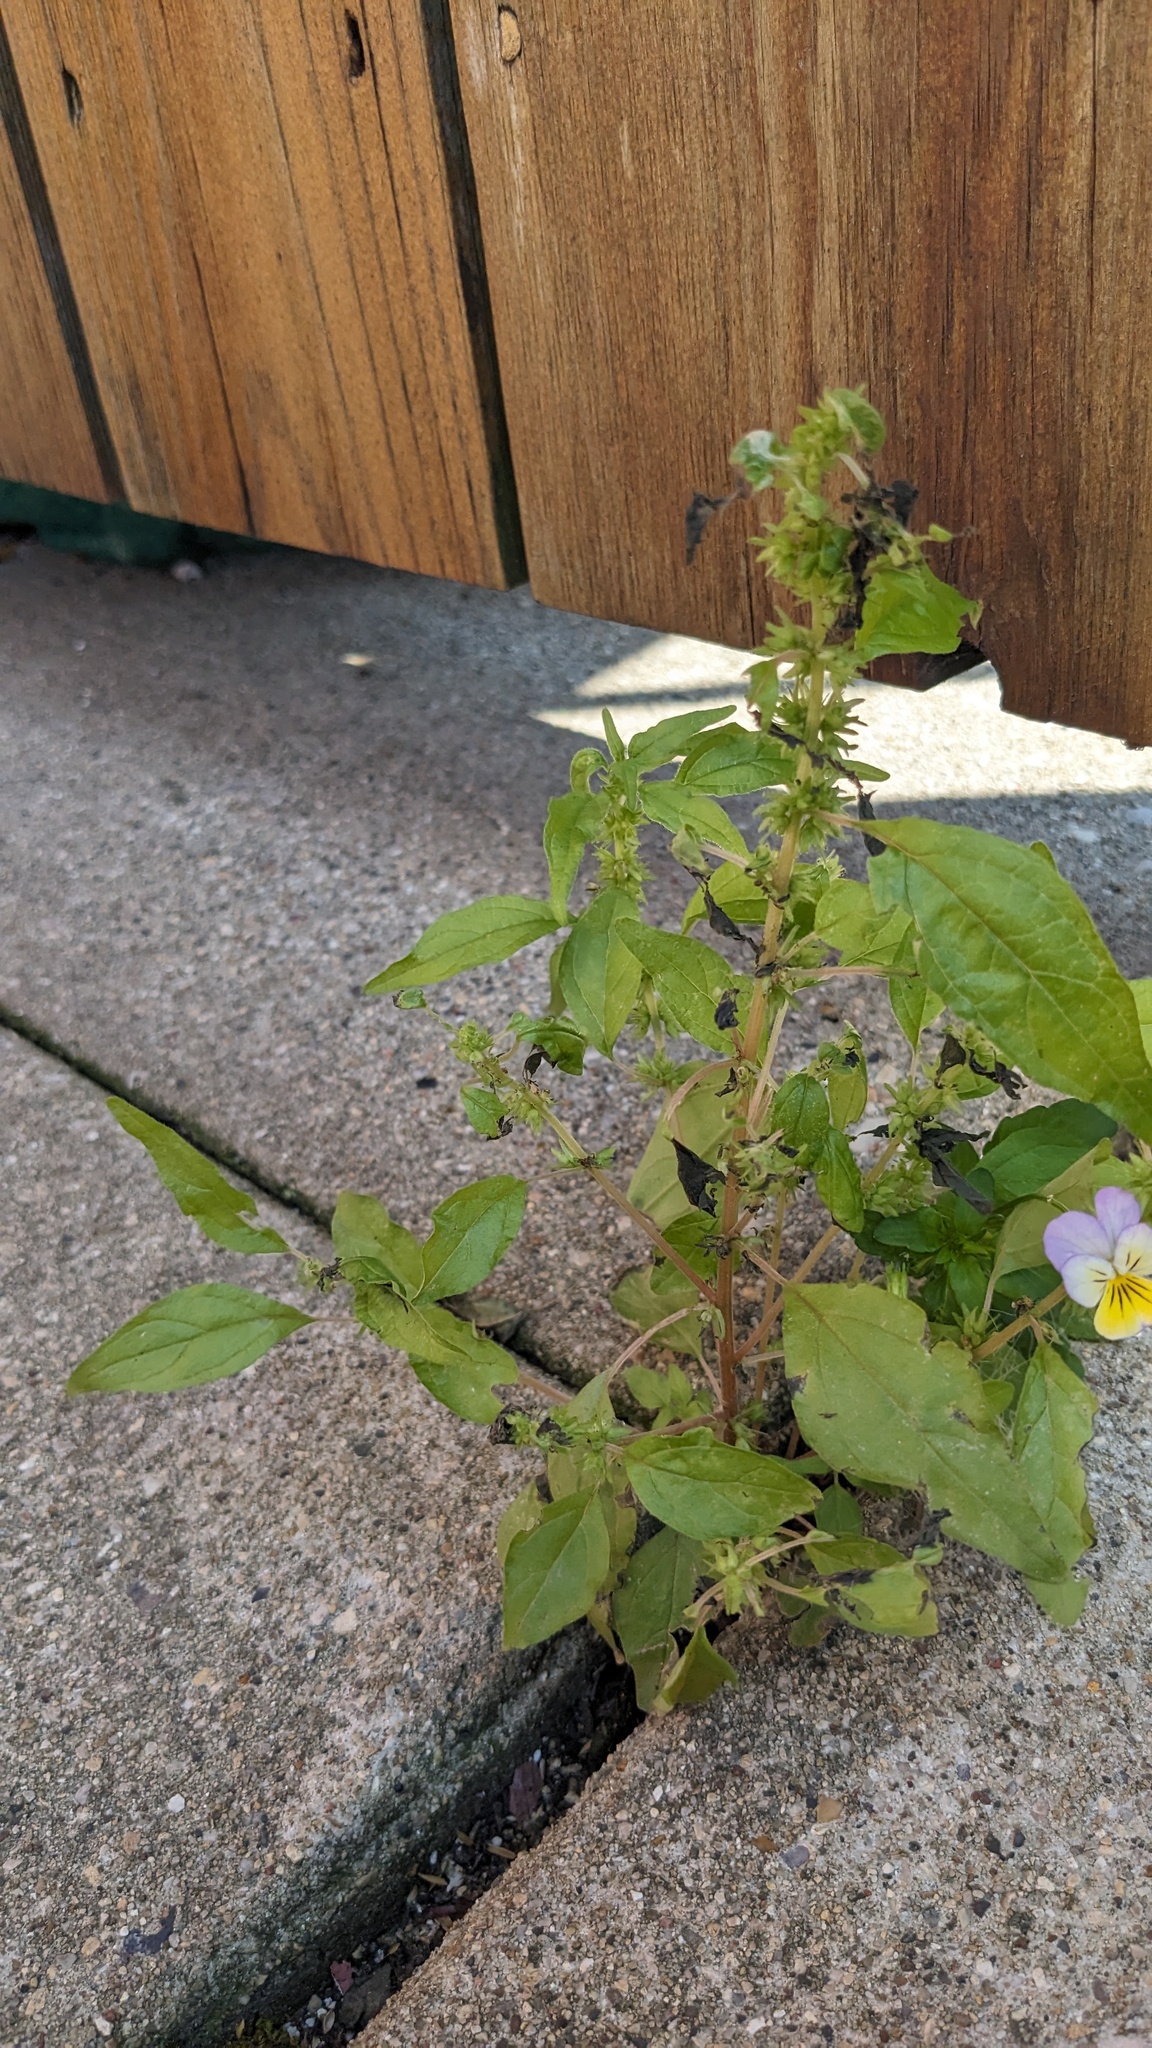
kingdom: Plantae
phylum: Tracheophyta
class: Magnoliopsida
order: Rosales
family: Urticaceae
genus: Parietaria
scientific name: Parietaria pensylvanica
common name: Pennsylvania pellitory
